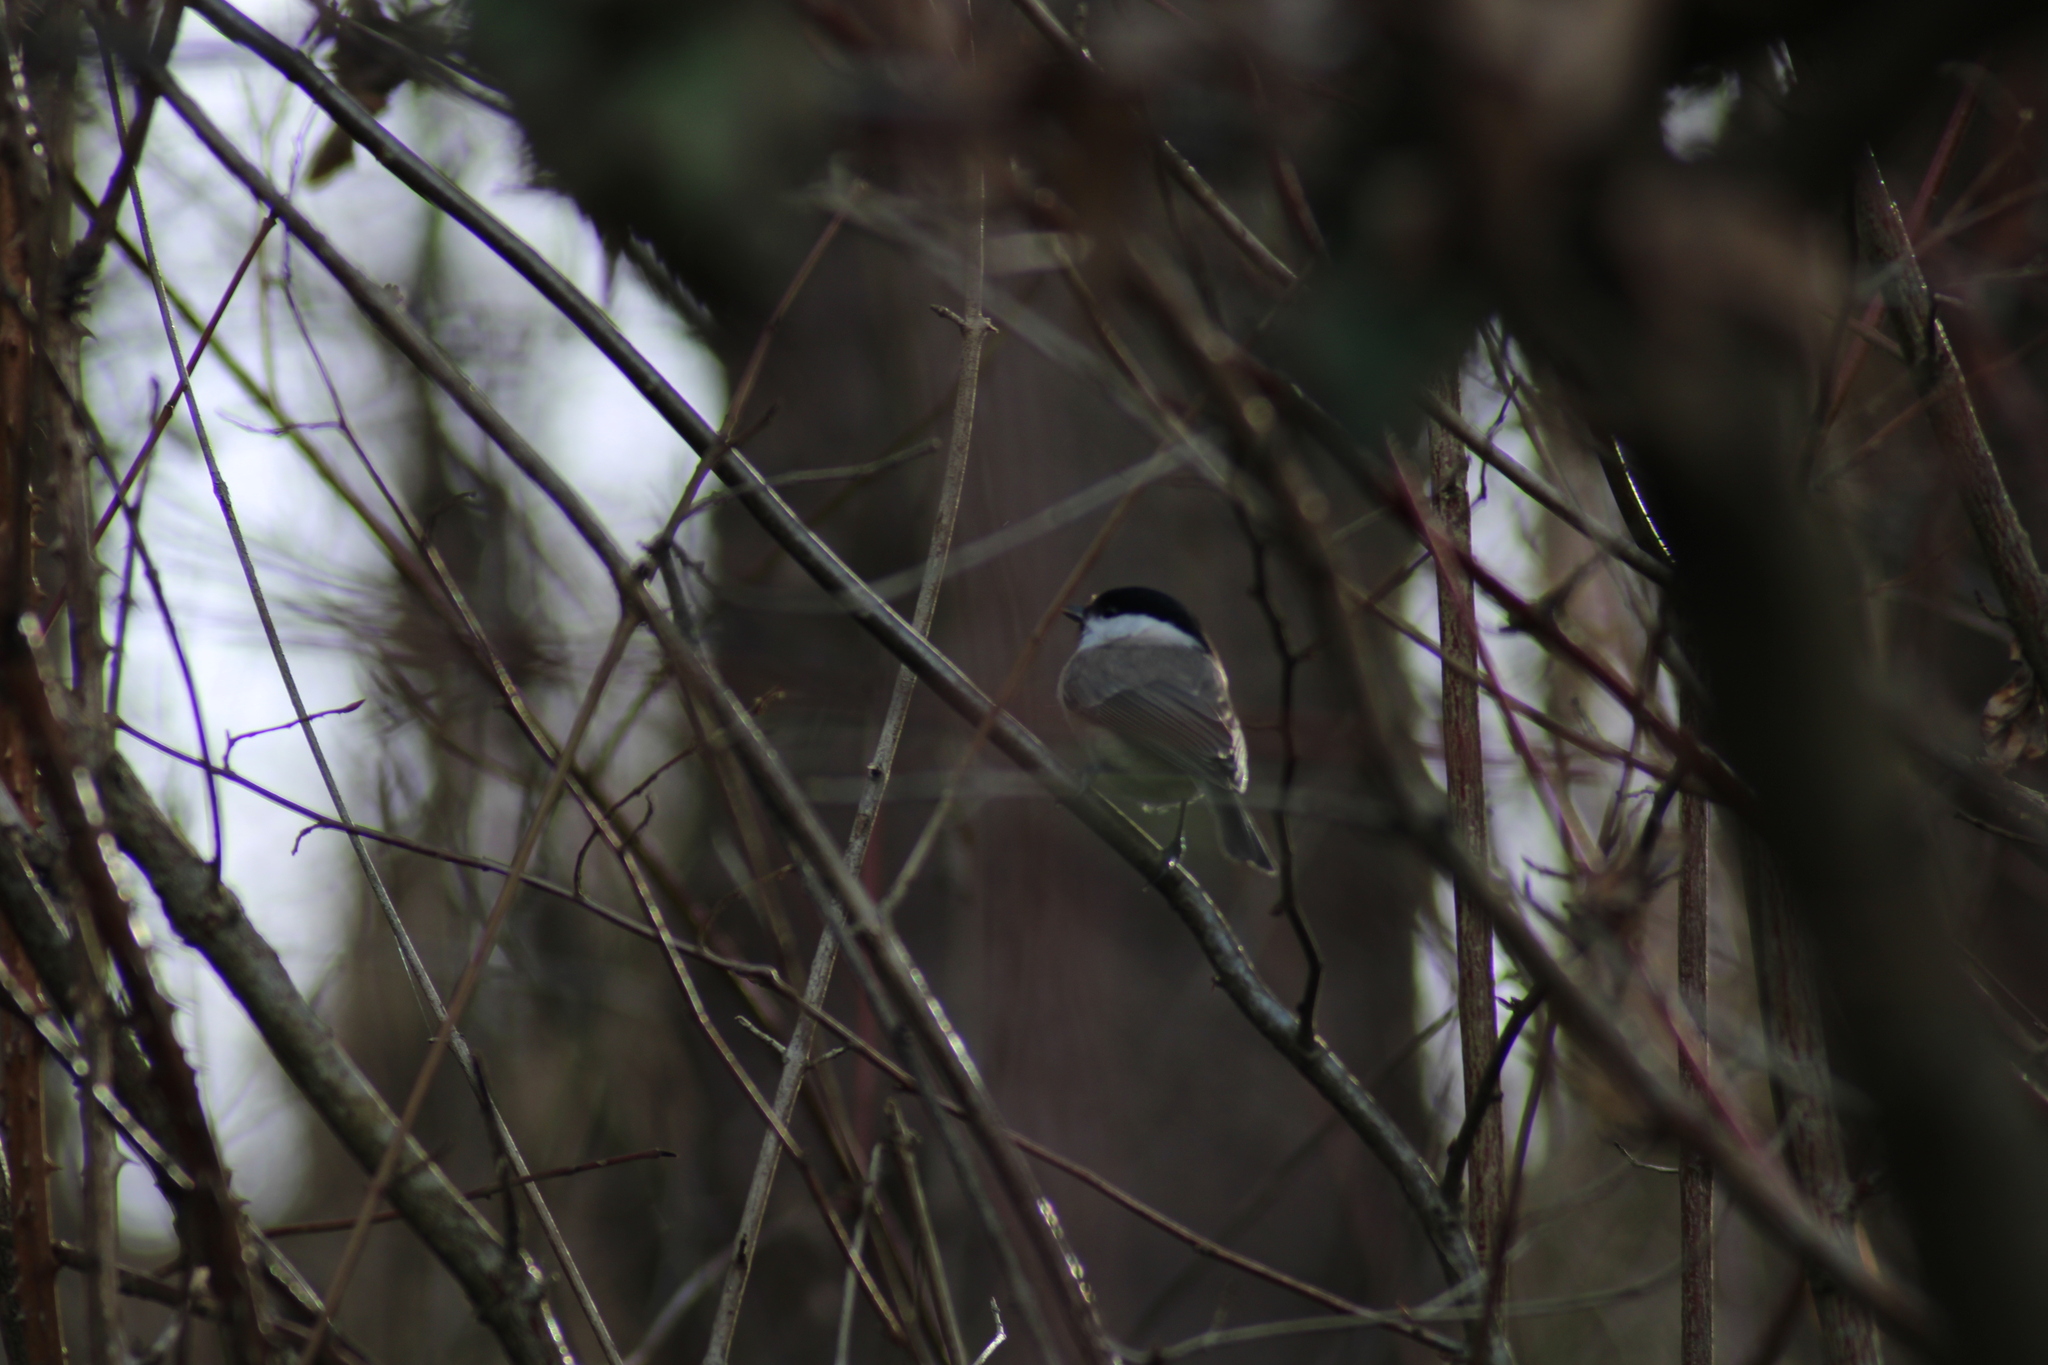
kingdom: Animalia
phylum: Chordata
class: Aves
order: Passeriformes
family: Paridae
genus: Poecile
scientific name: Poecile palustris
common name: Marsh tit
